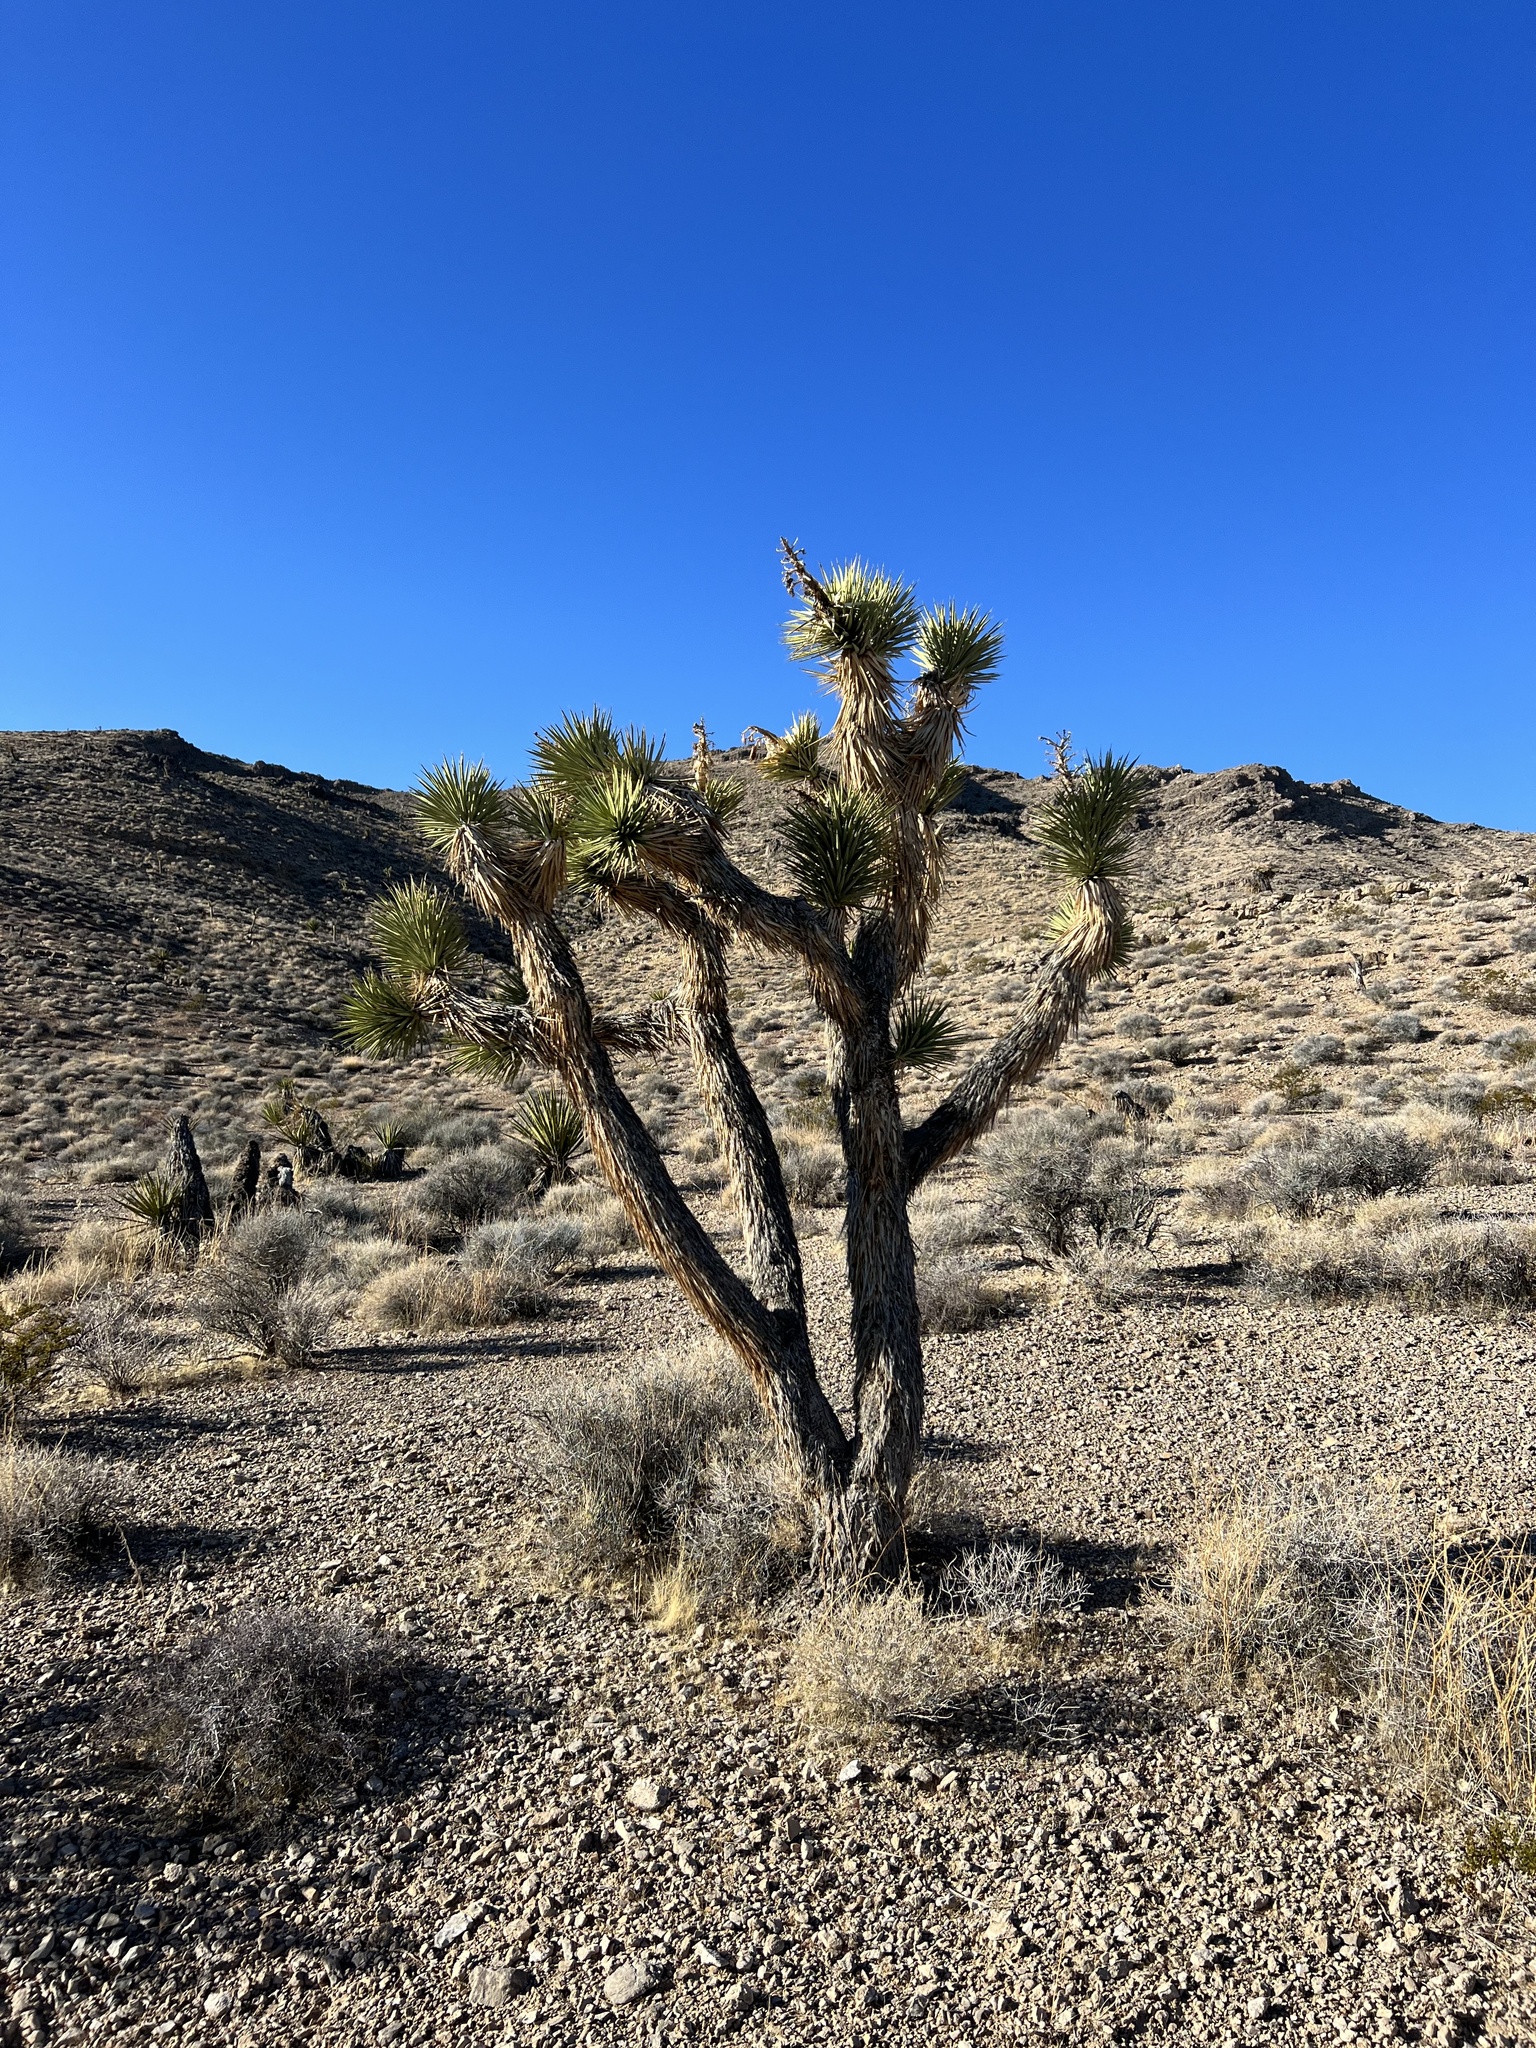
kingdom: Plantae
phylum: Tracheophyta
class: Liliopsida
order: Asparagales
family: Asparagaceae
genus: Yucca
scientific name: Yucca brevifolia
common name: Joshua tree
